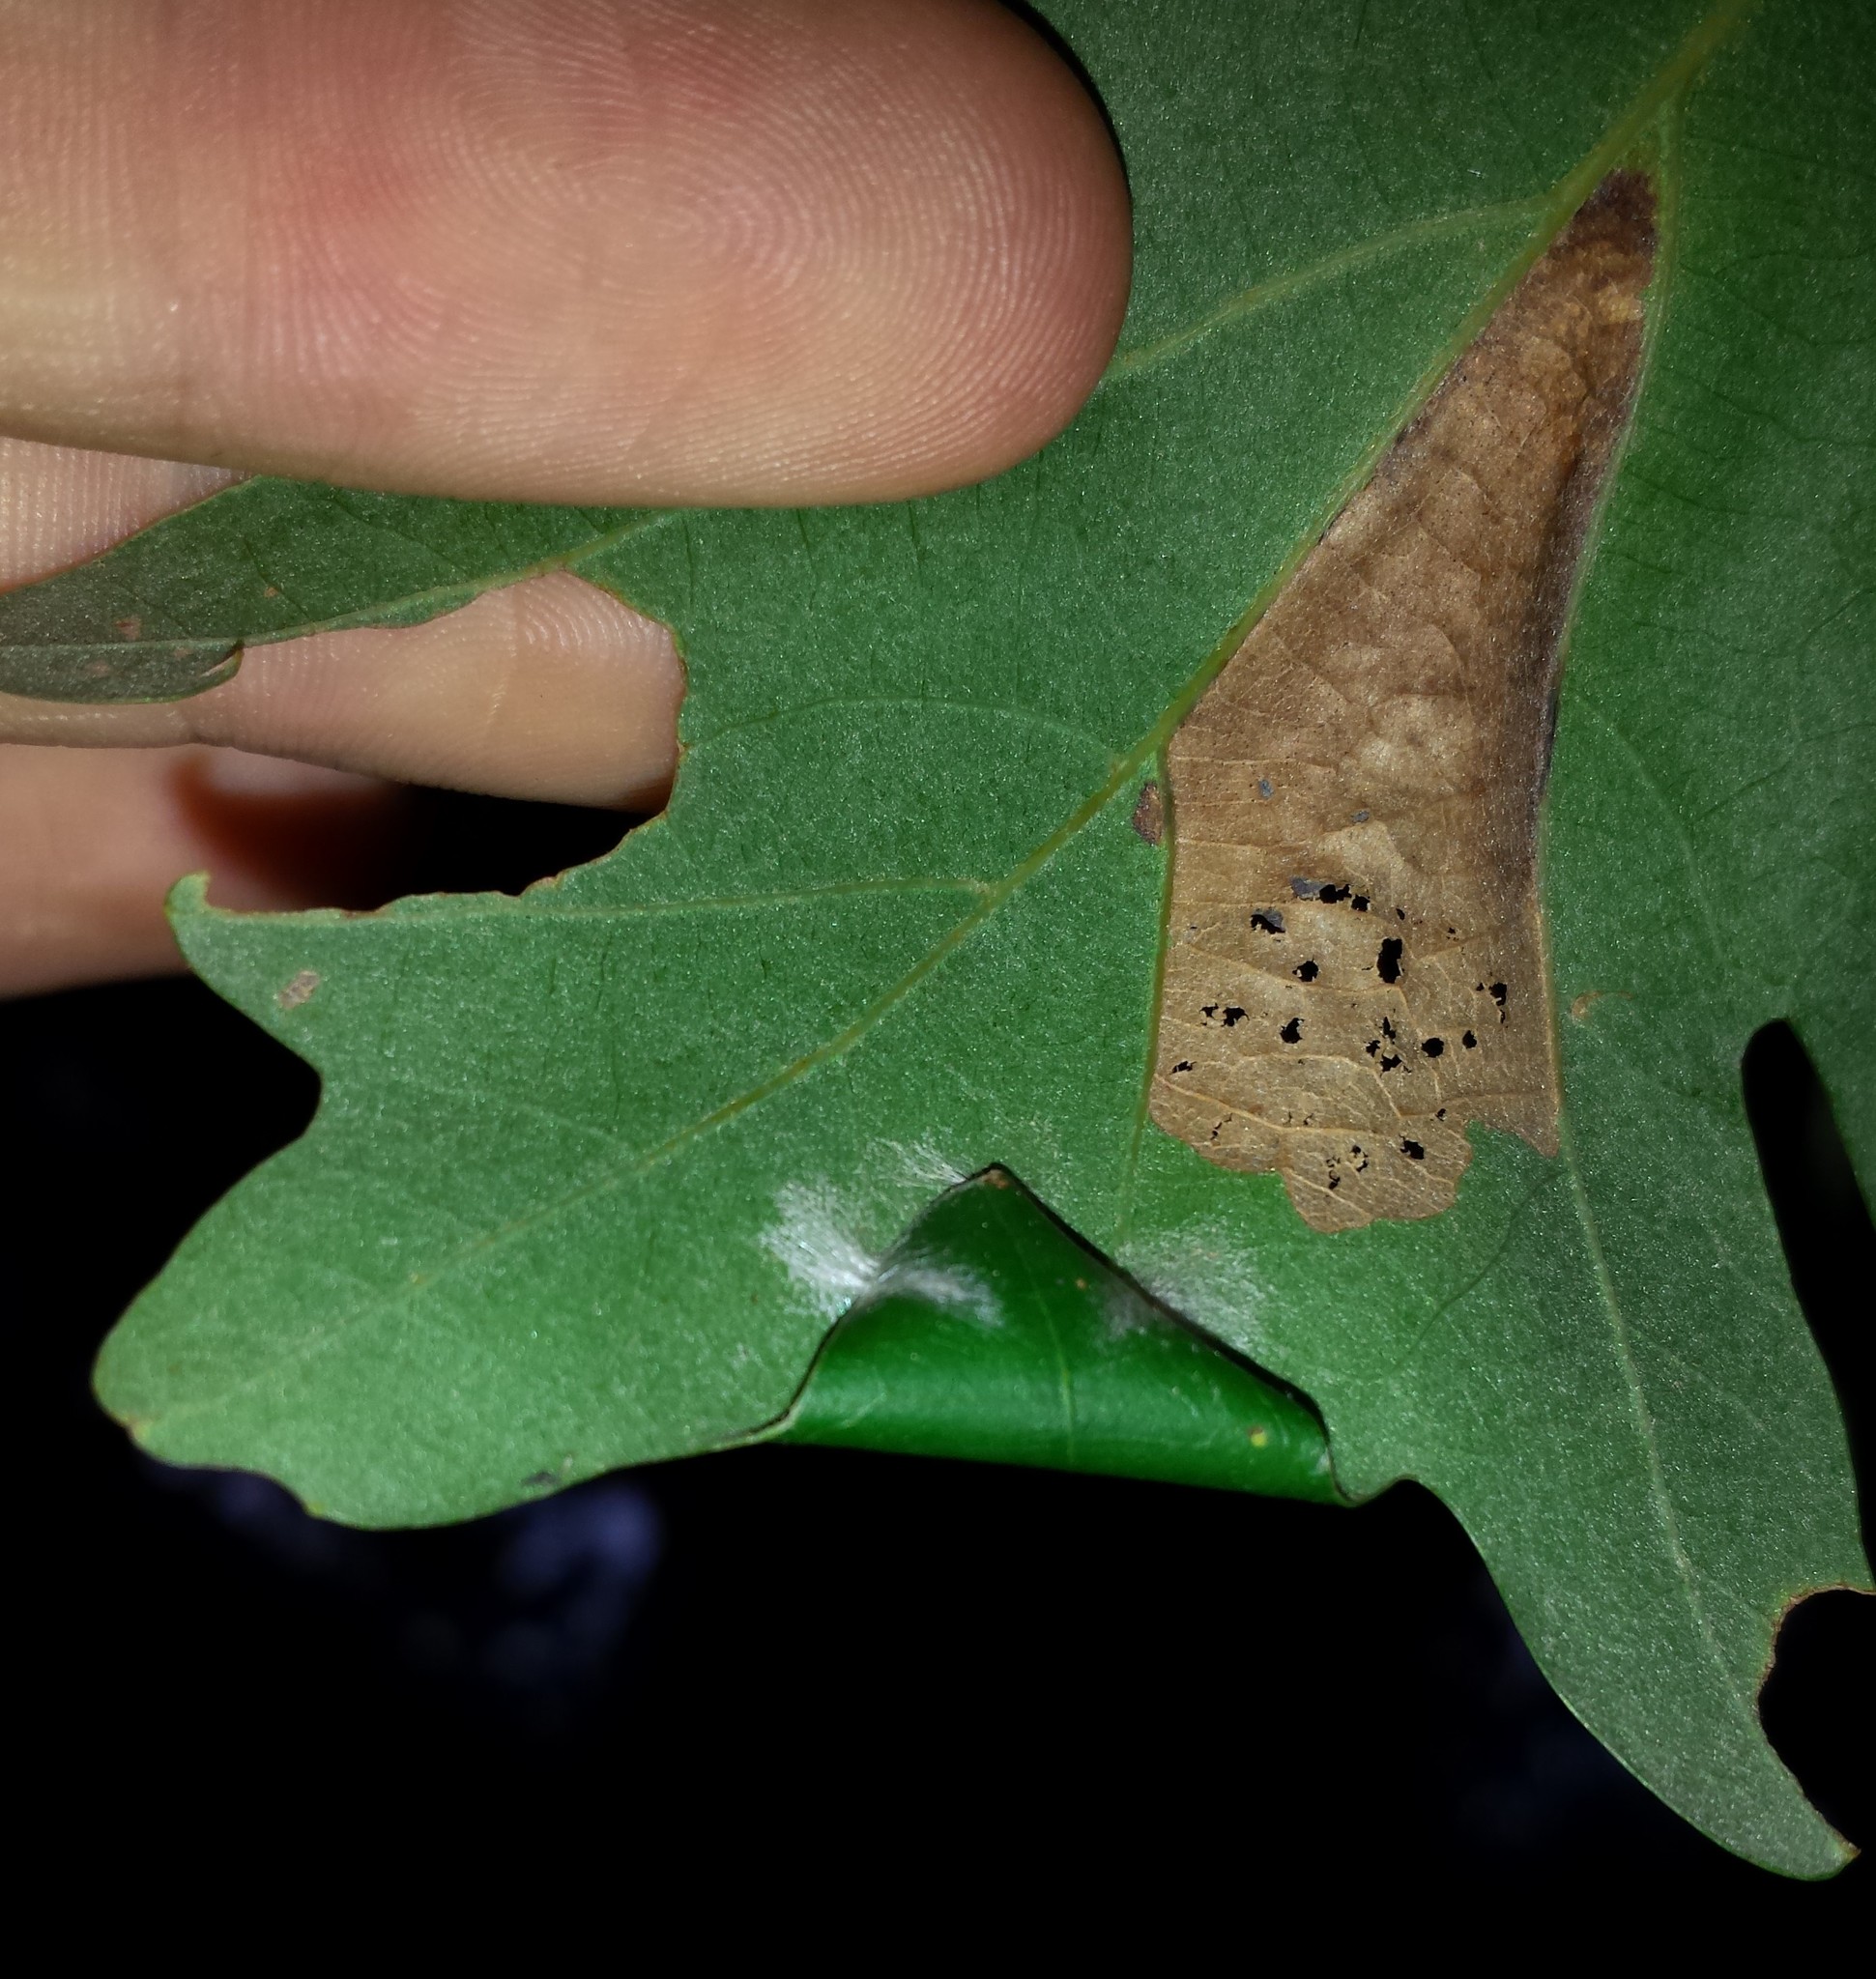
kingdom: Animalia
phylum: Arthropoda
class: Insecta
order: Lepidoptera
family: Tischeriidae
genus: Tischeria
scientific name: Tischeria quercitella
